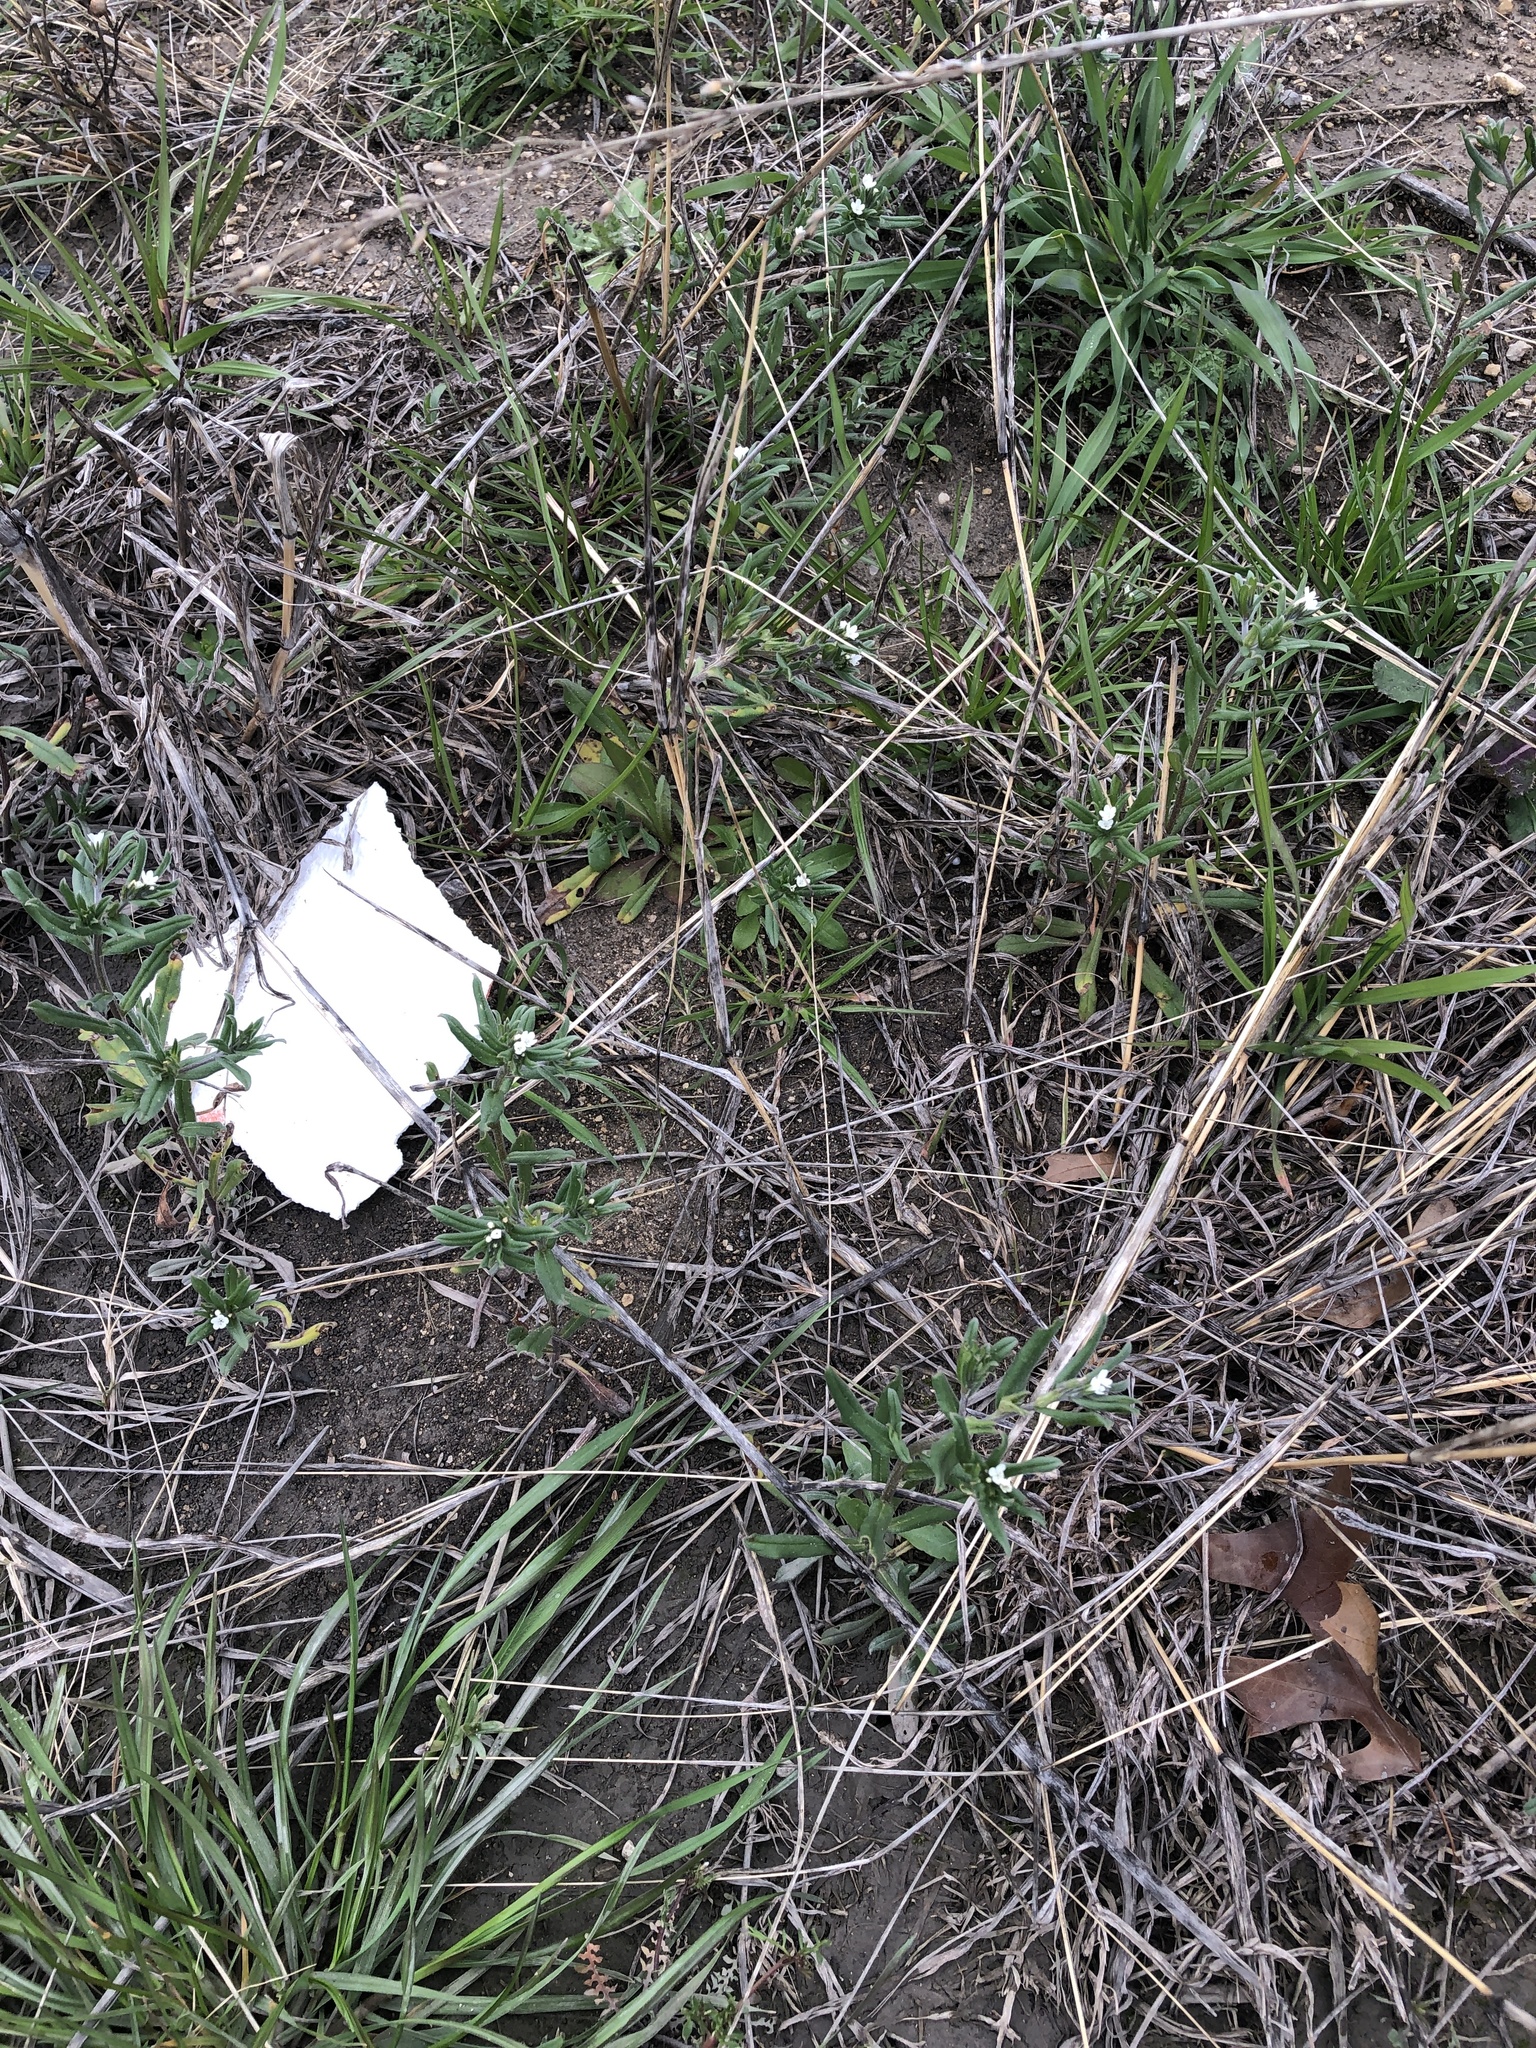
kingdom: Plantae
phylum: Tracheophyta
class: Magnoliopsida
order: Boraginales
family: Boraginaceae
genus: Buglossoides
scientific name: Buglossoides arvensis
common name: Corn gromwell
